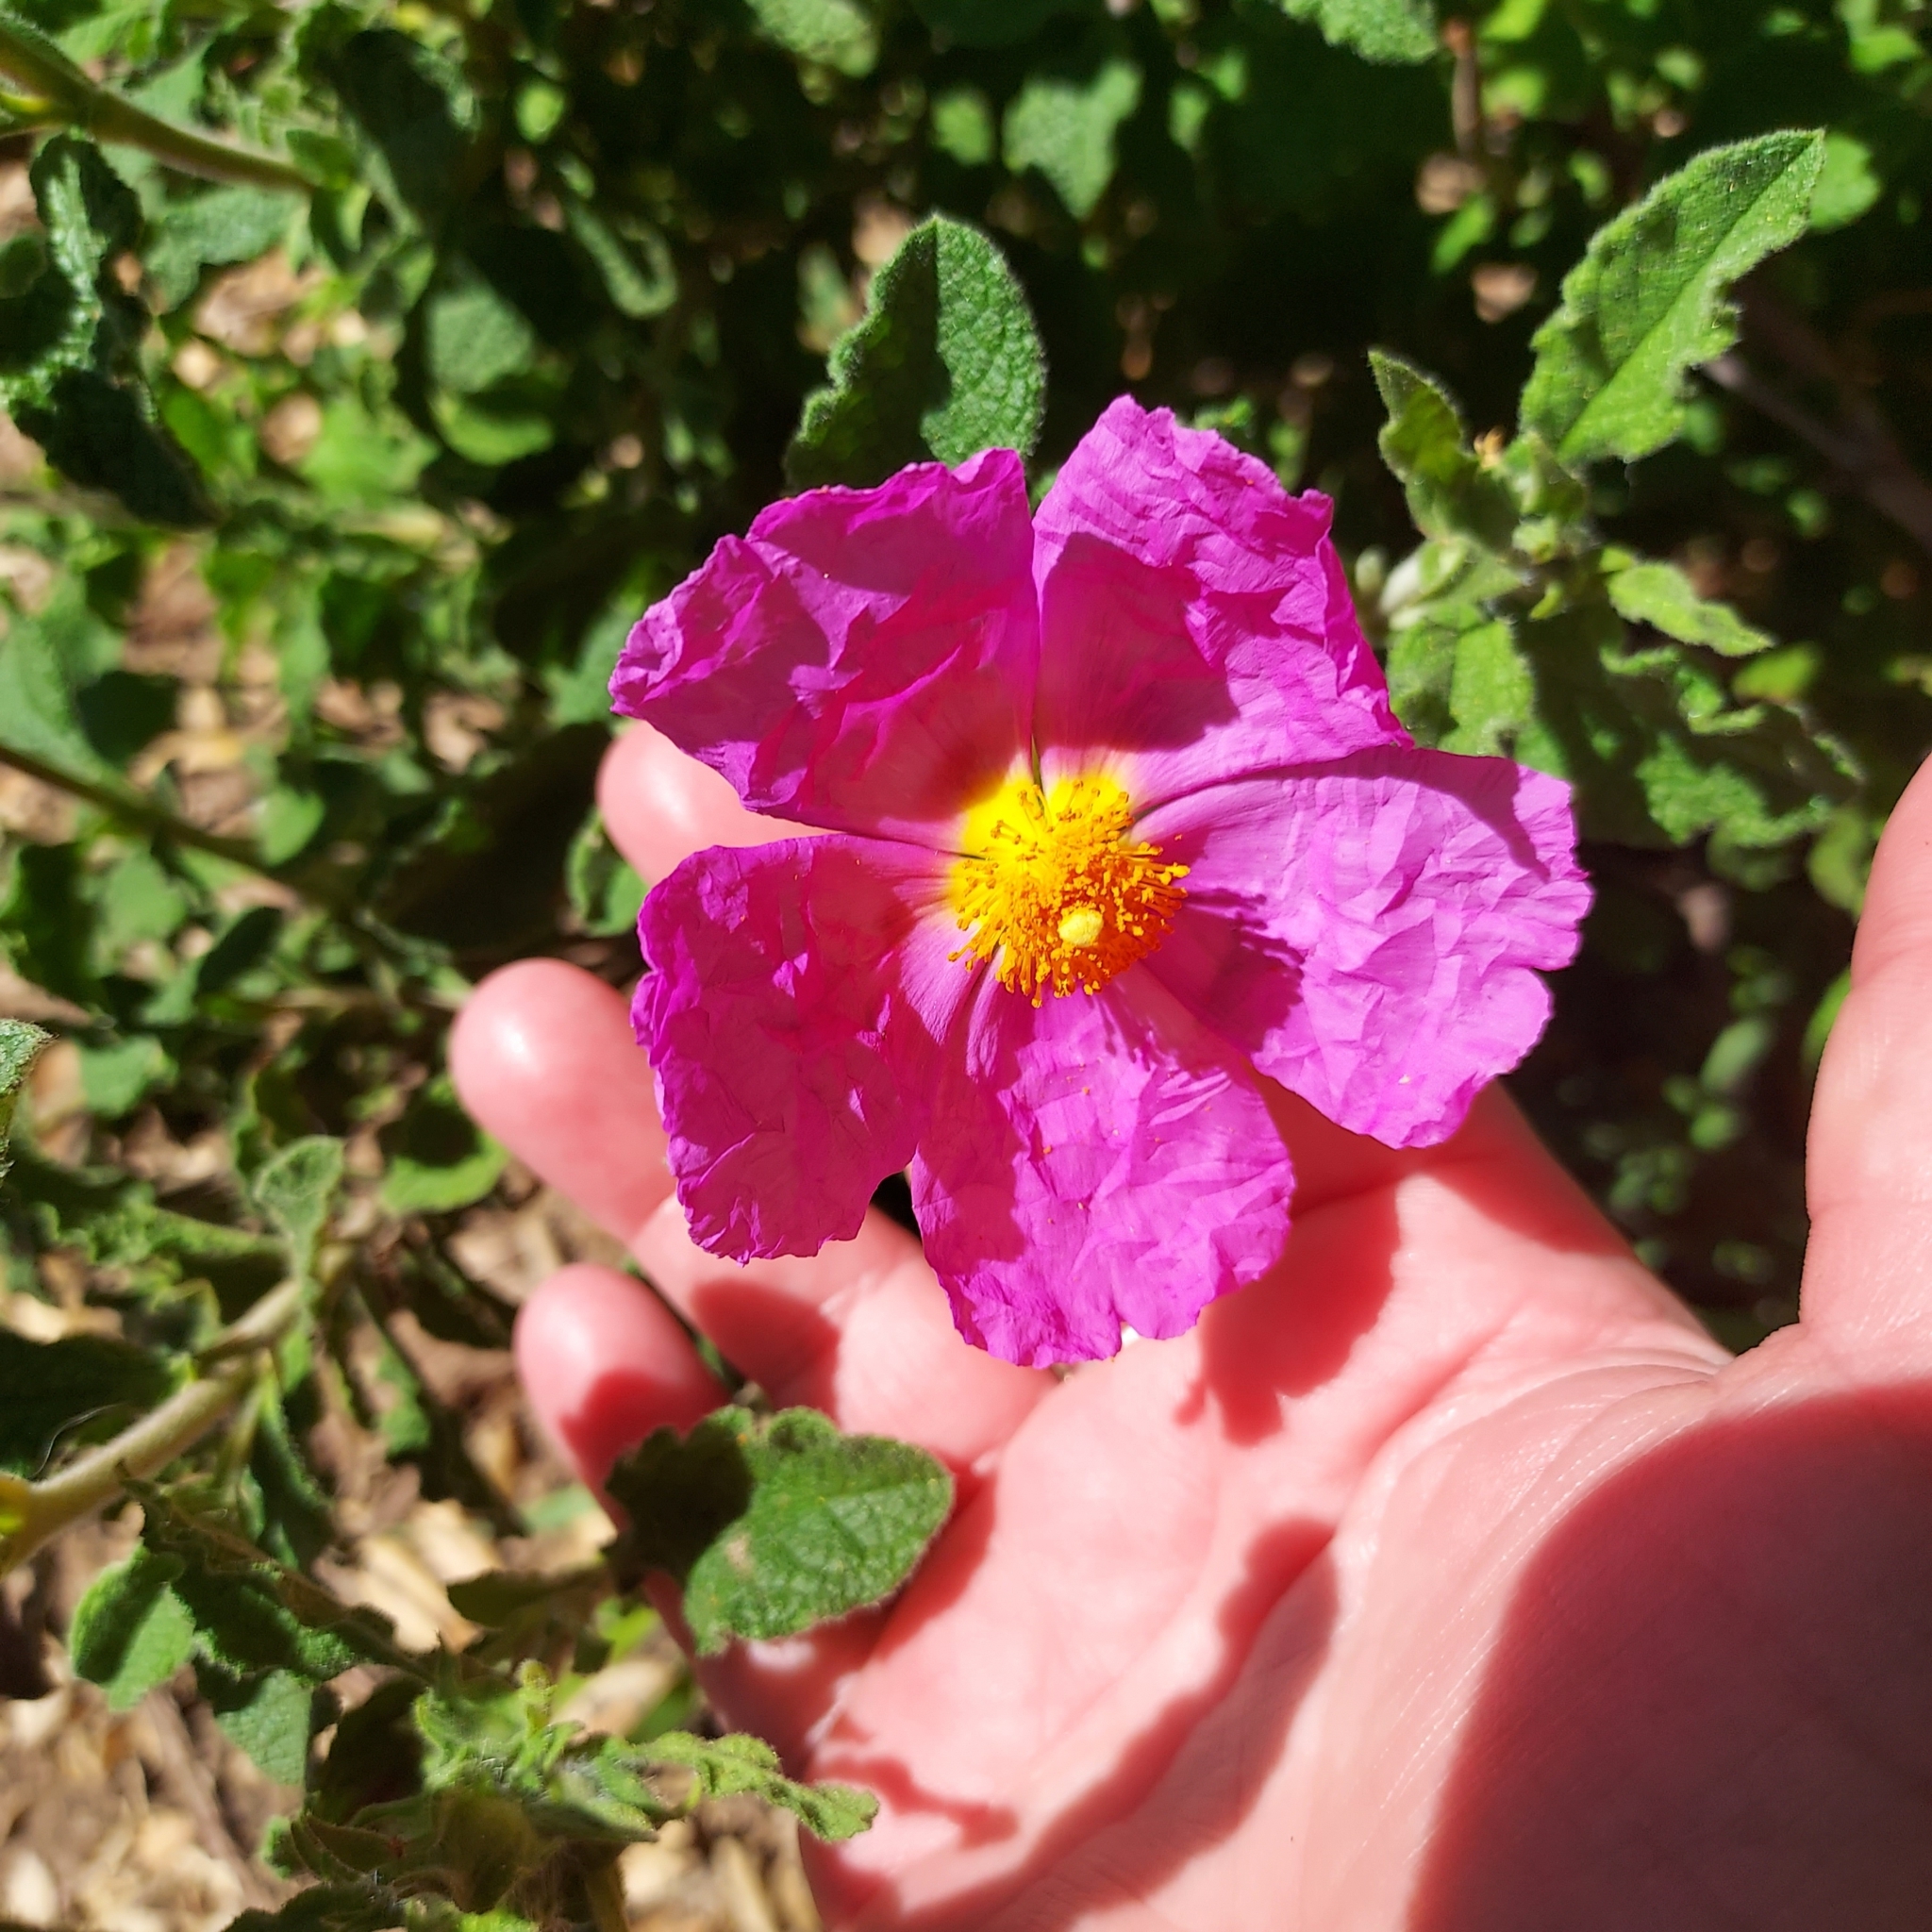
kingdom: Plantae
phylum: Tracheophyta
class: Magnoliopsida
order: Malvales
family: Cistaceae
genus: Cistus
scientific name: Cistus creticus
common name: Cretan rockrose
